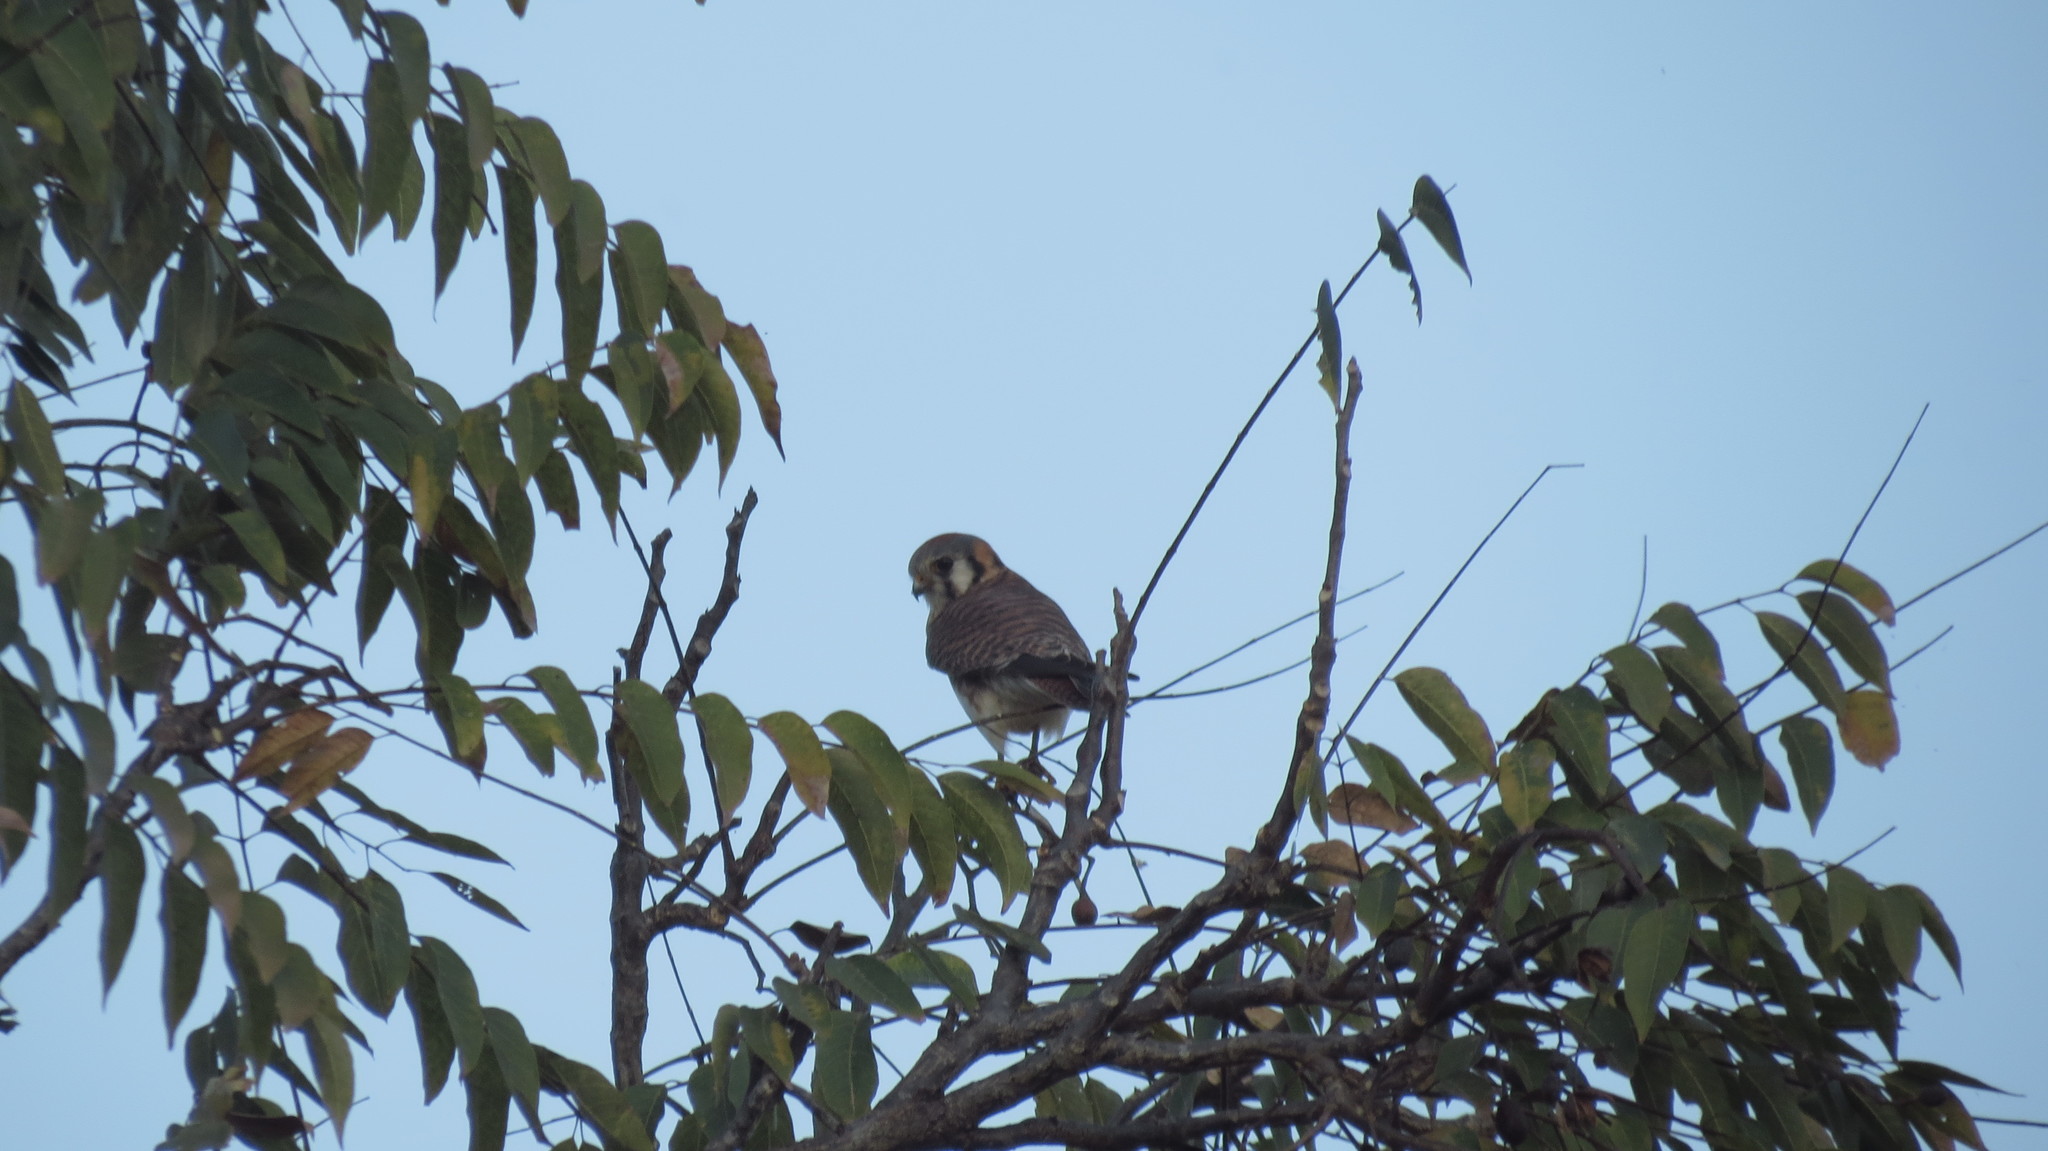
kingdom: Animalia
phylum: Chordata
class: Aves
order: Falconiformes
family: Falconidae
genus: Falco
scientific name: Falco sparverius
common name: American kestrel
